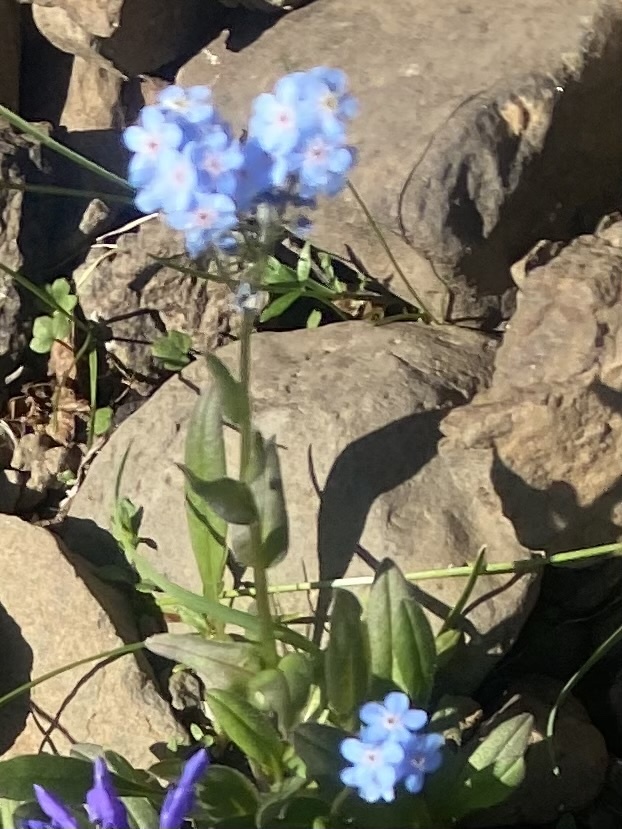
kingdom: Plantae
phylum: Tracheophyta
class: Magnoliopsida
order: Boraginales
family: Boraginaceae
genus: Myosotis
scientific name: Myosotis asiatica
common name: Asian forget-me-not
